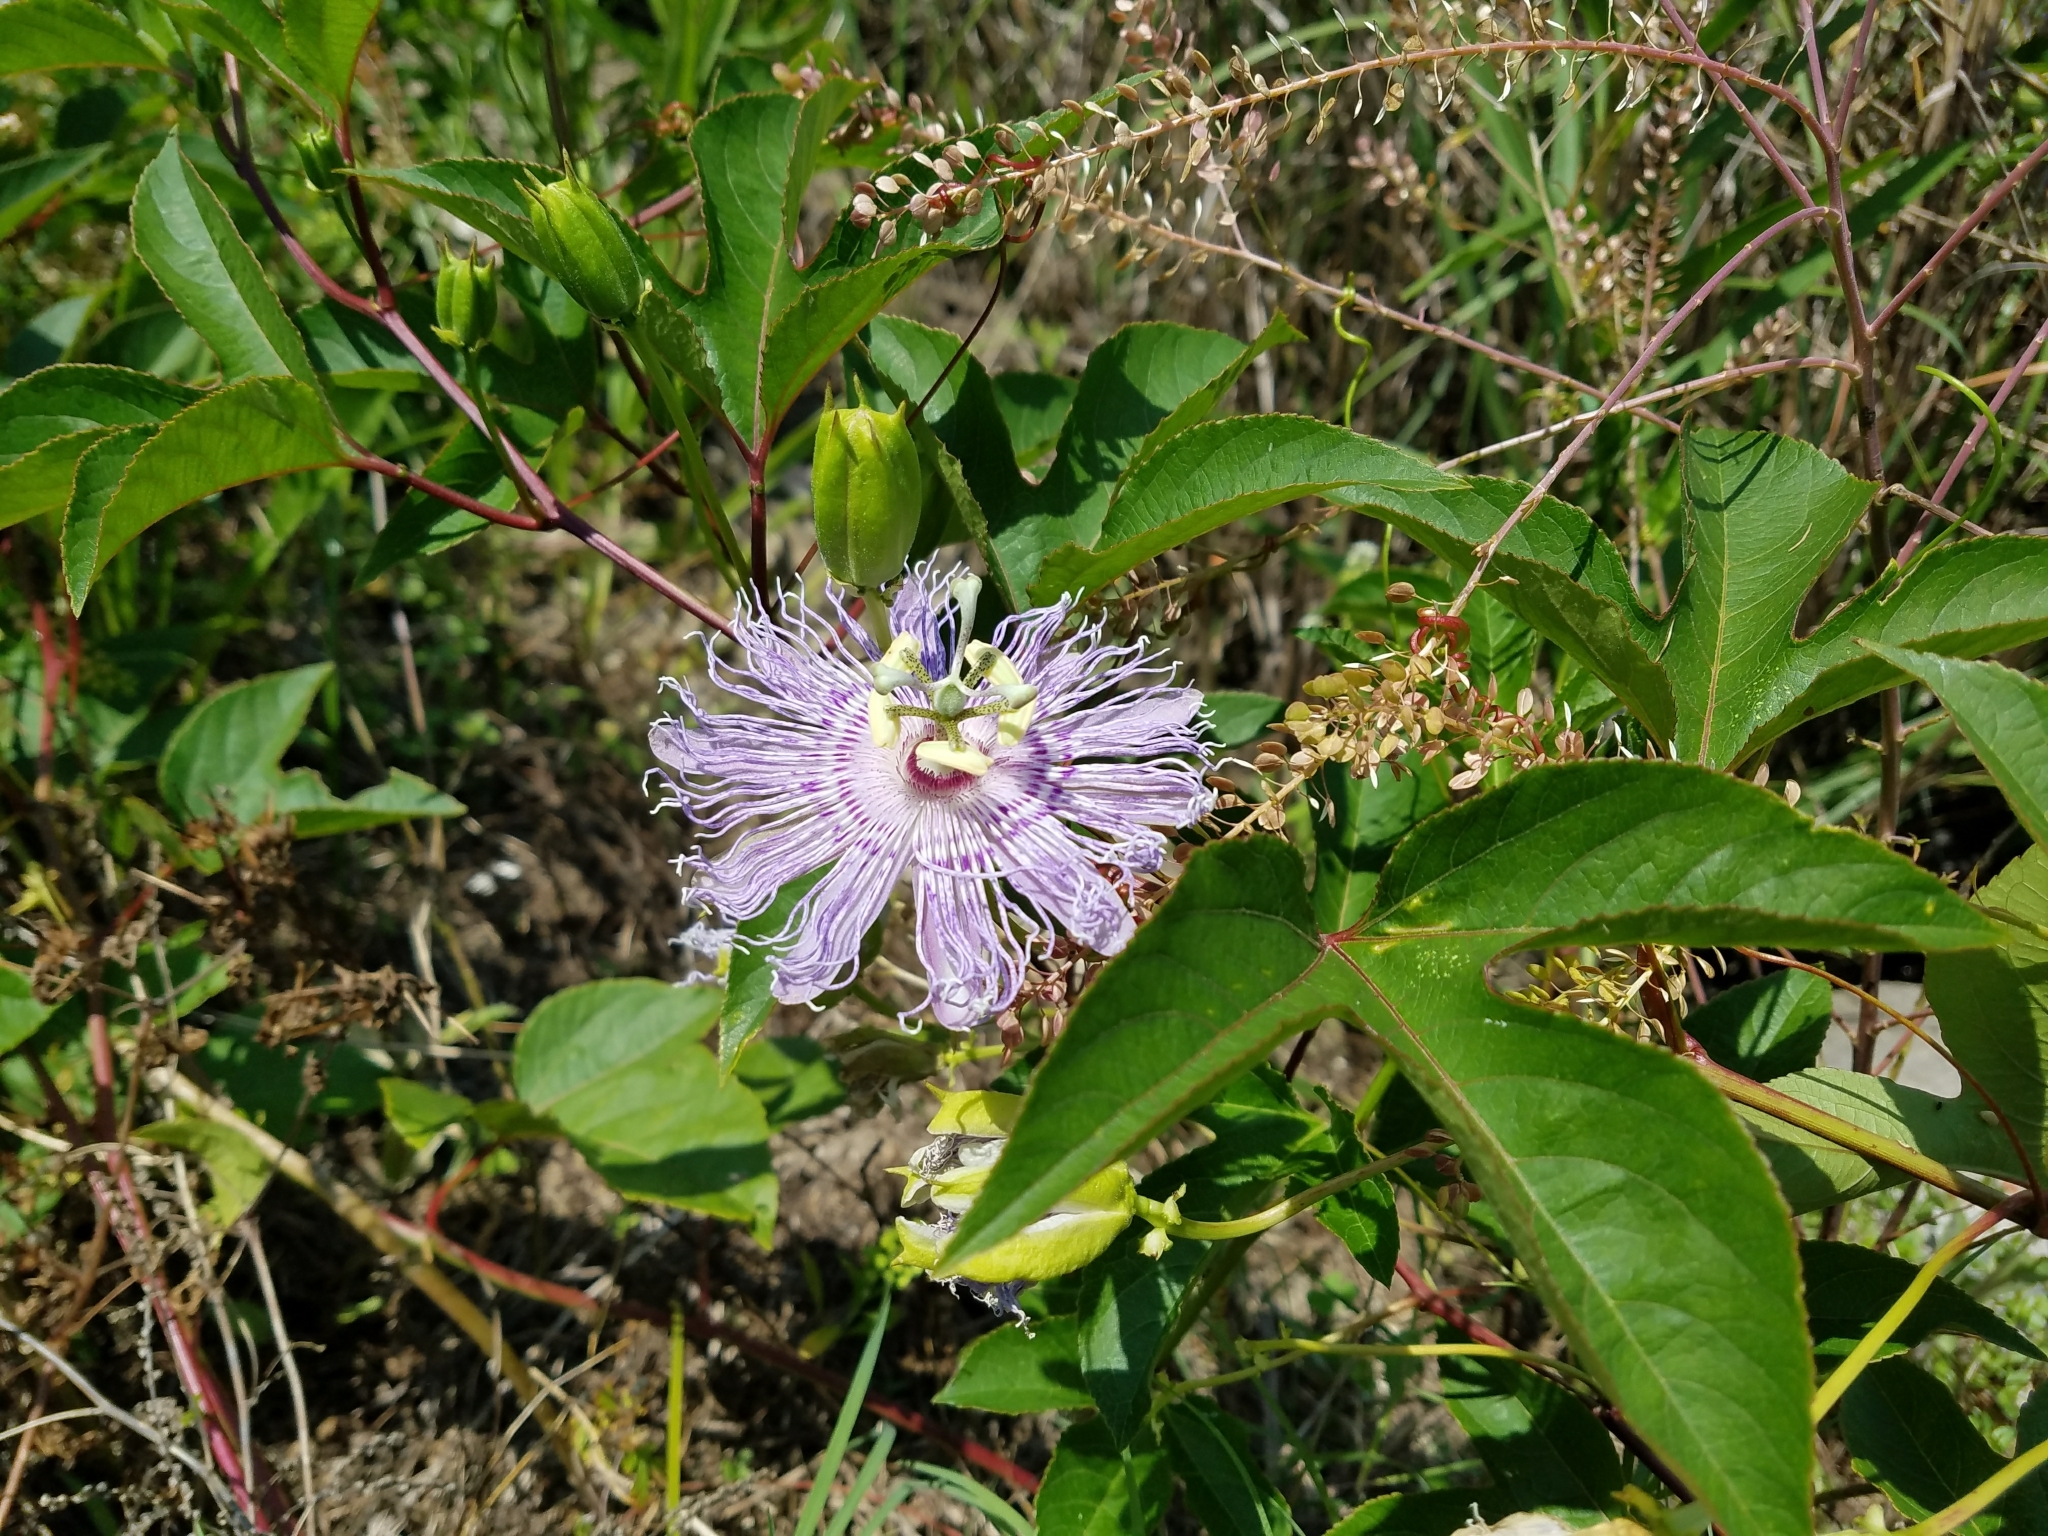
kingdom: Plantae
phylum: Tracheophyta
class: Magnoliopsida
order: Malpighiales
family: Passifloraceae
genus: Passiflora
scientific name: Passiflora incarnata
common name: Apricot-vine
